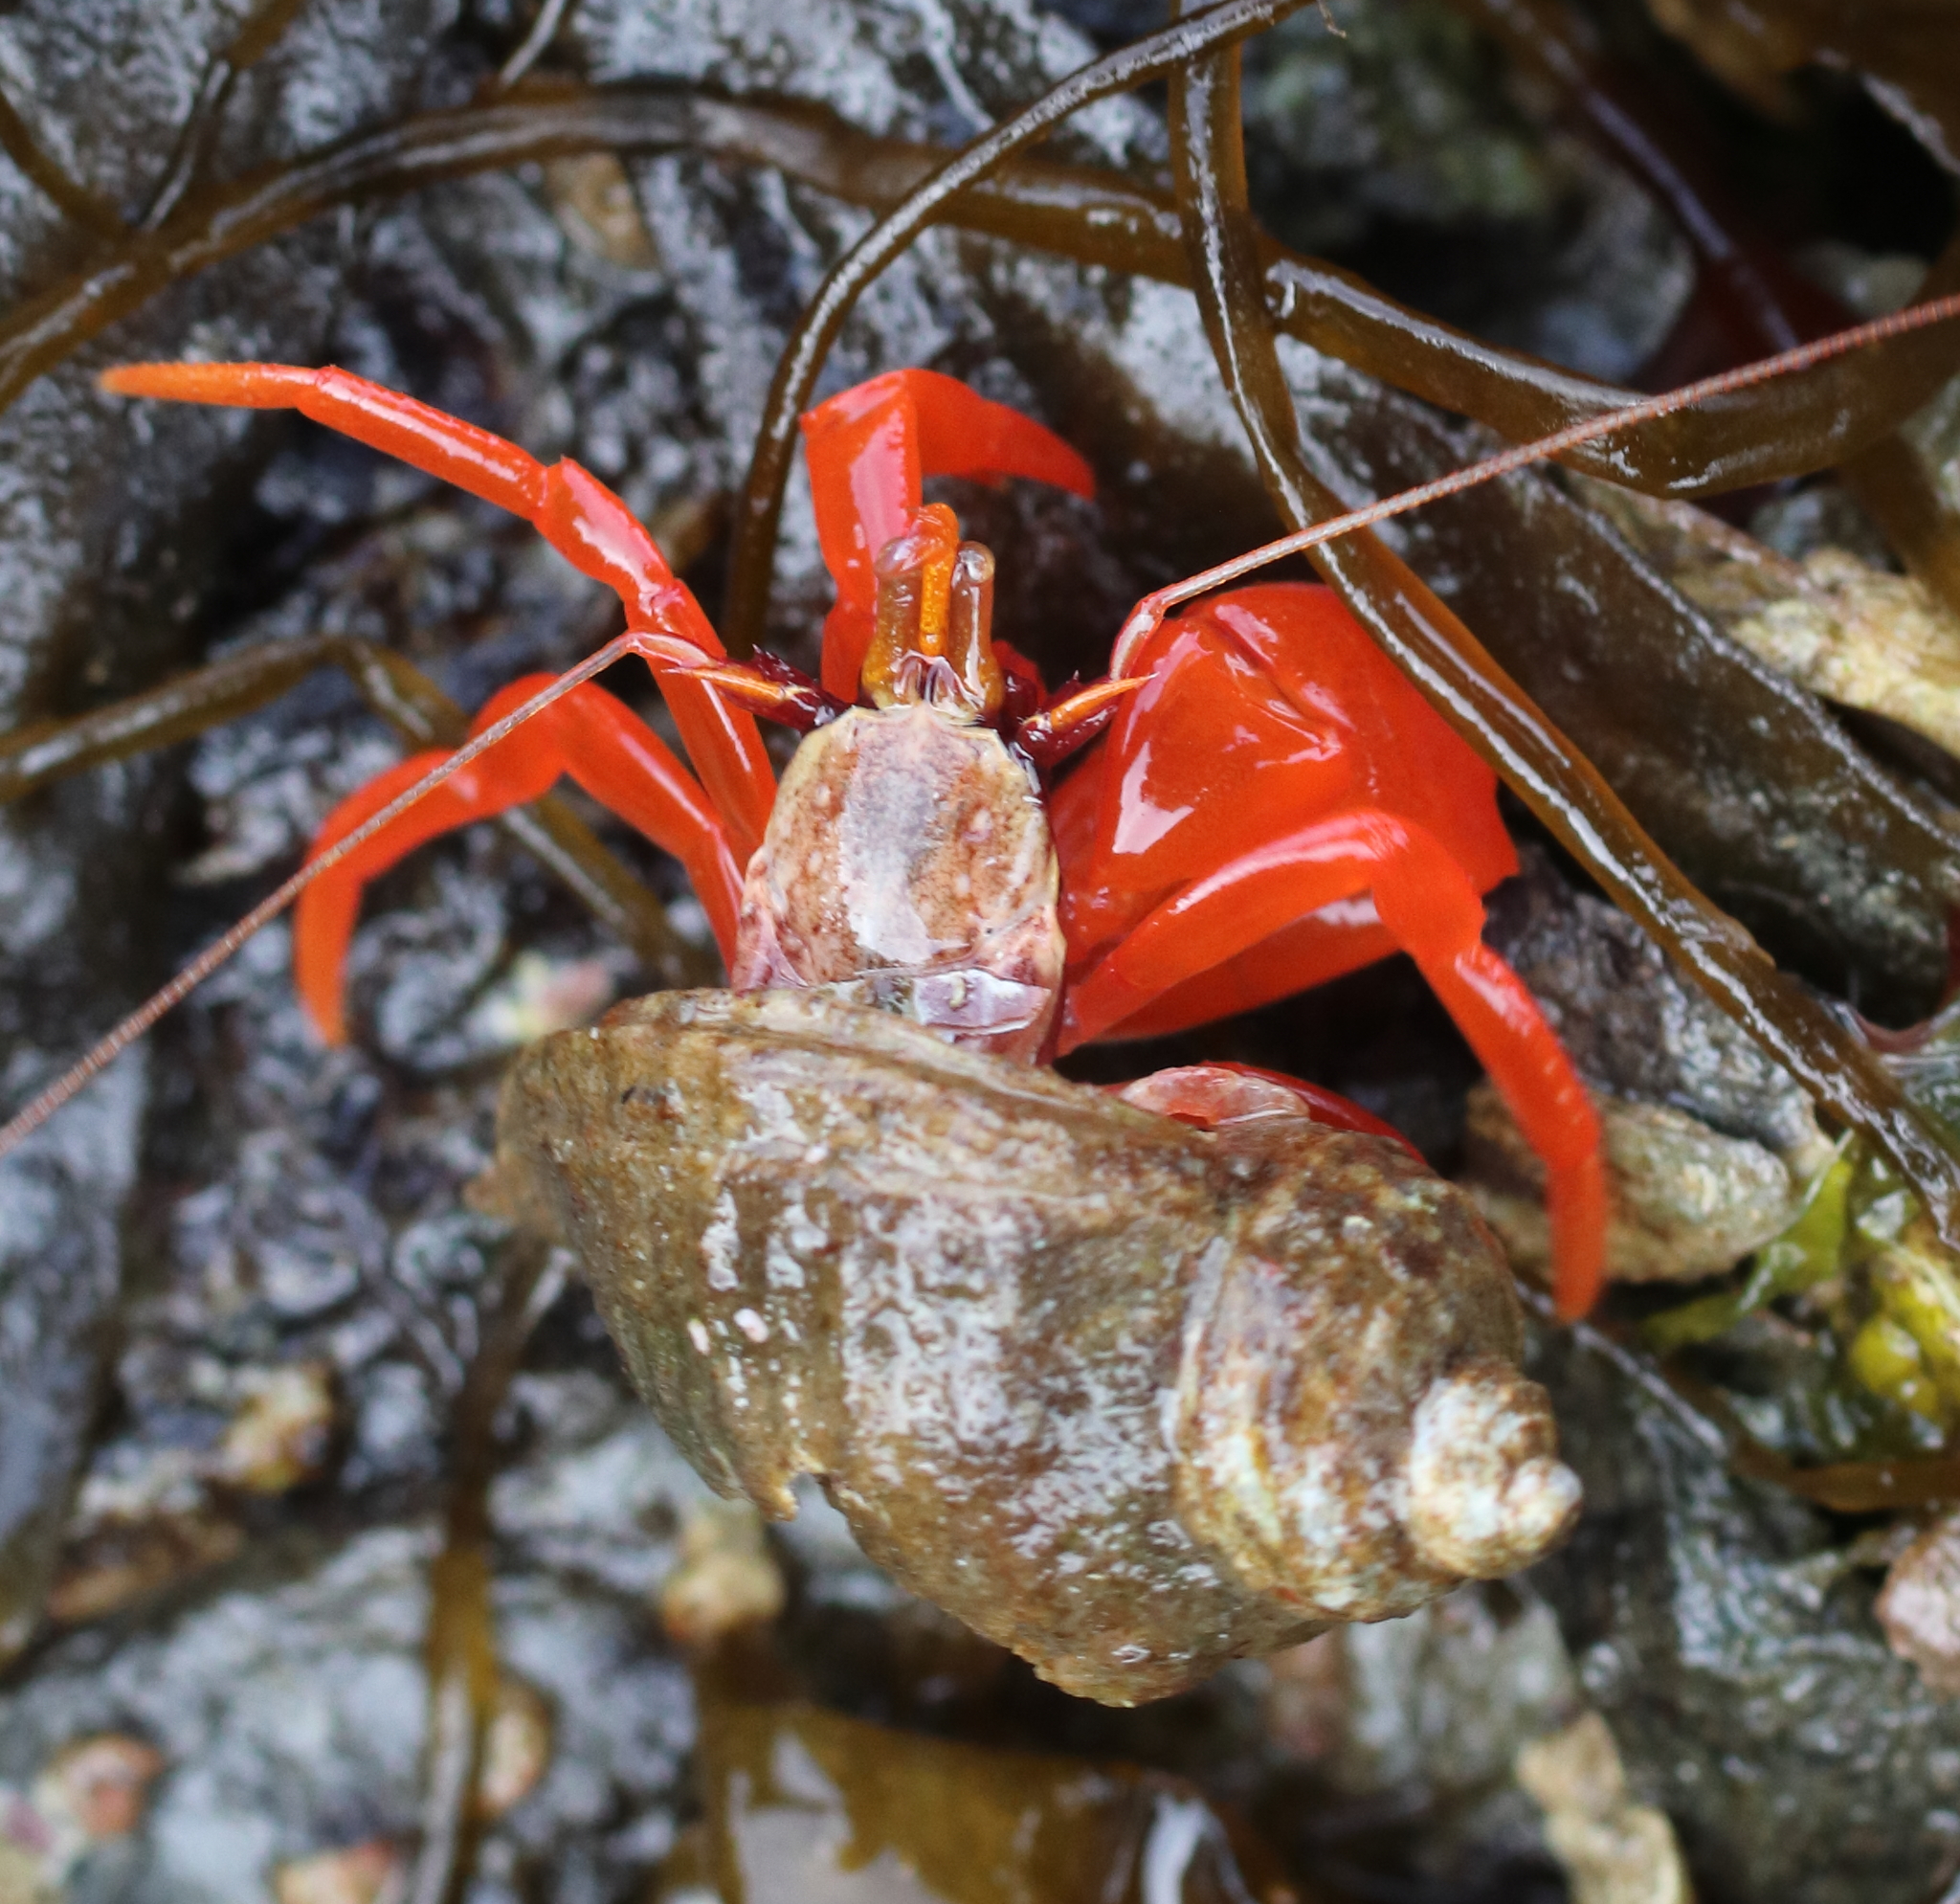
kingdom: Animalia
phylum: Arthropoda
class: Malacostraca
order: Decapoda
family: Paguridae
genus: Elassochirus
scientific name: Elassochirus gilli
